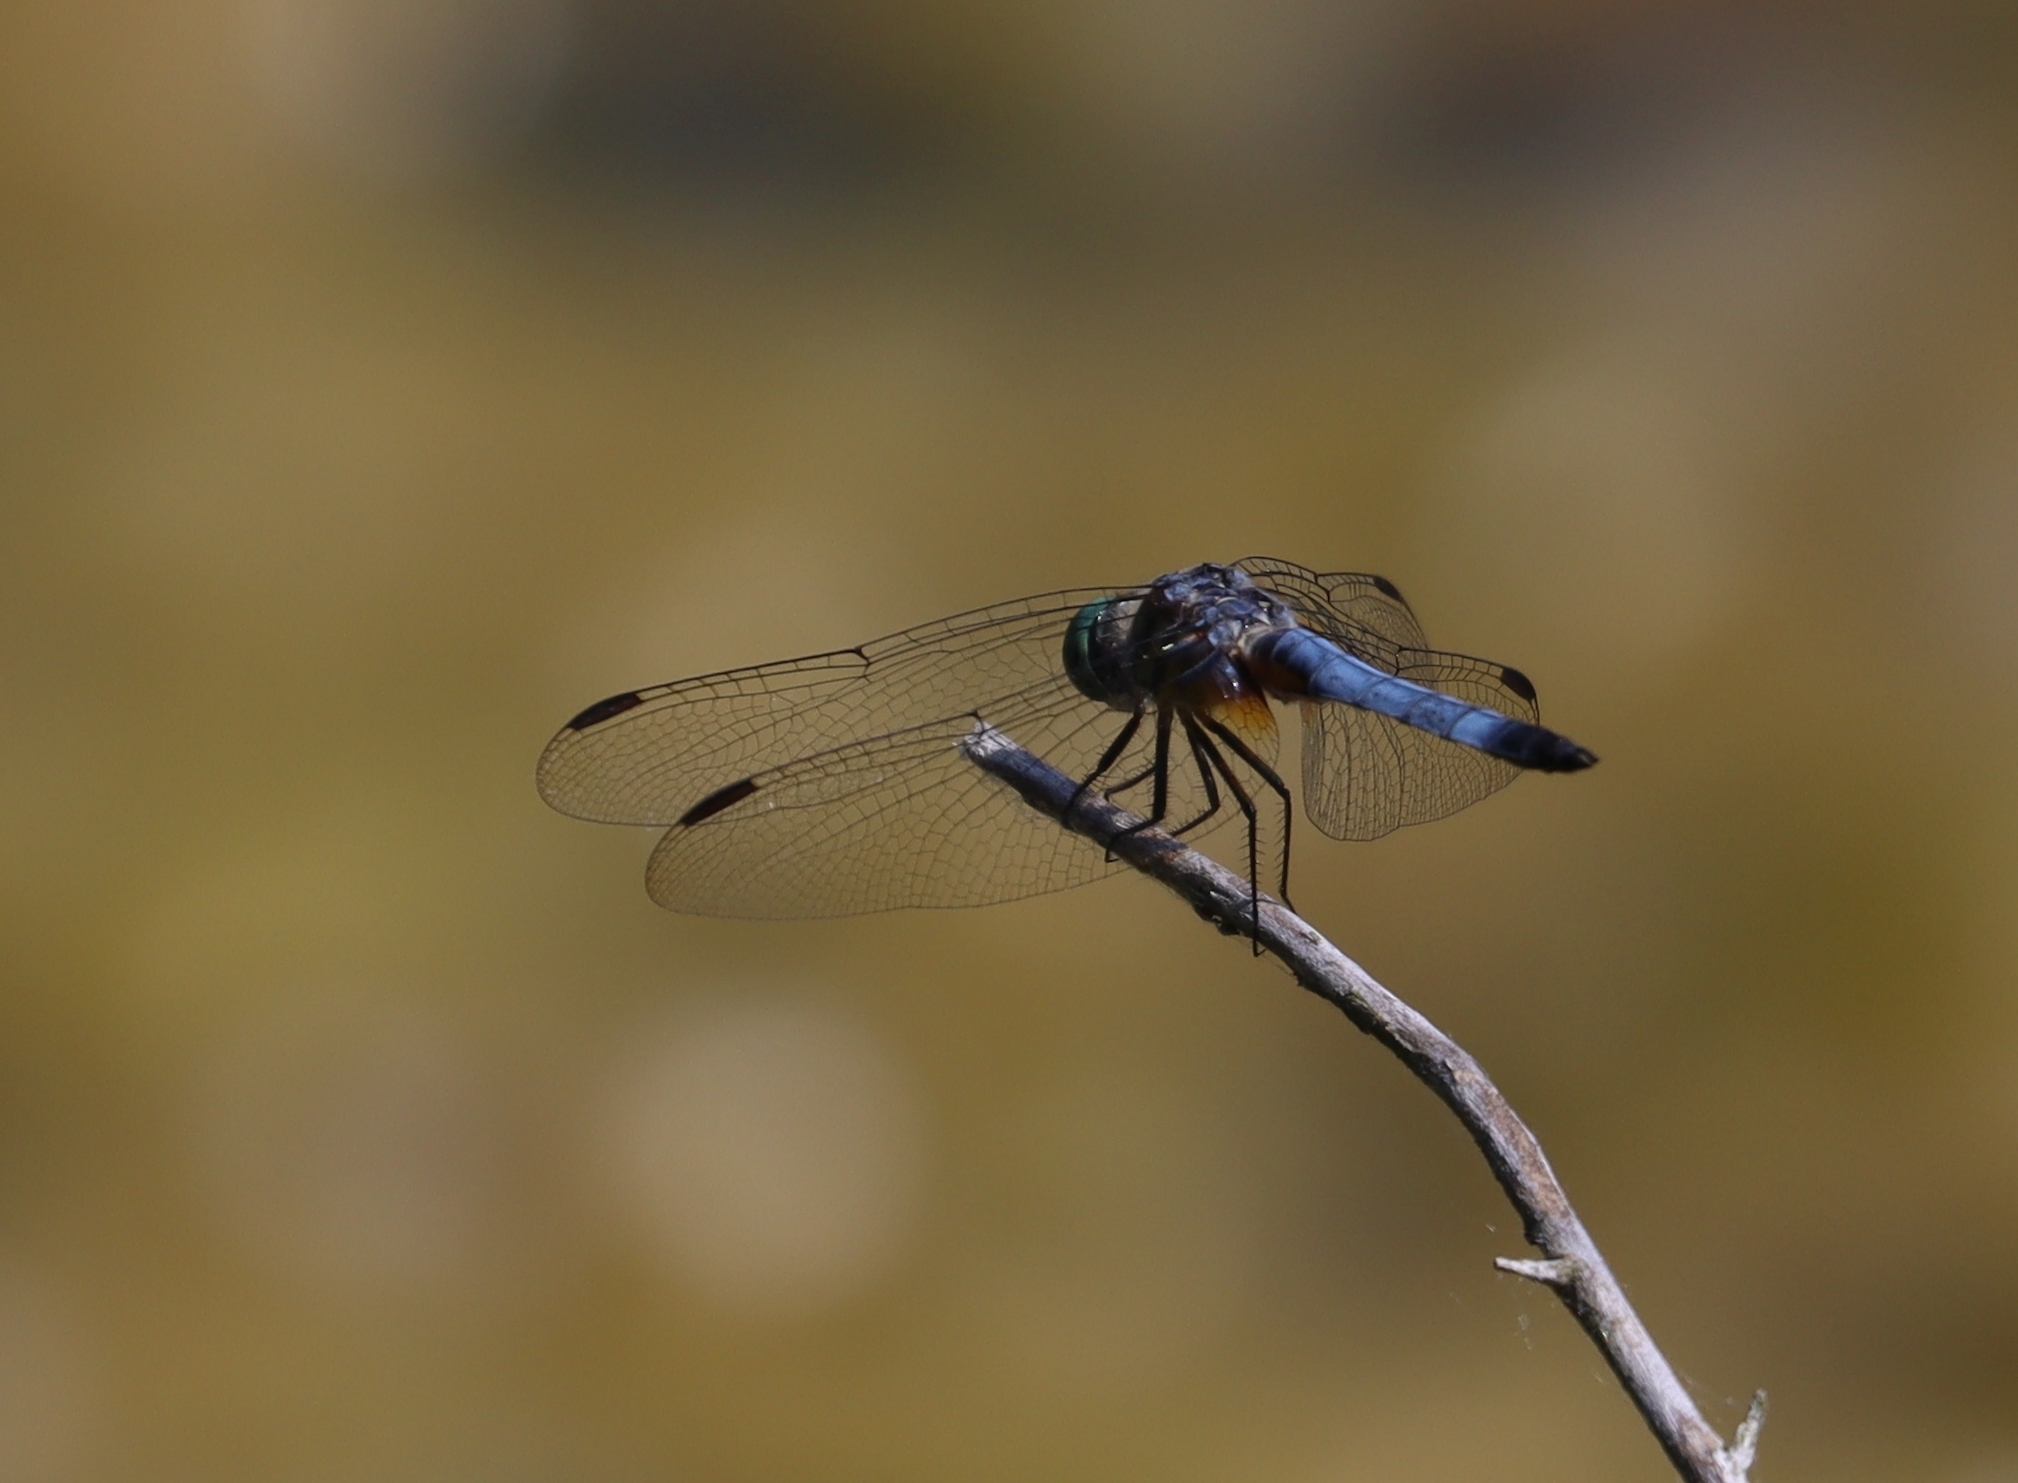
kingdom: Animalia
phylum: Arthropoda
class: Insecta
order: Odonata
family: Libellulidae
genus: Pachydiplax
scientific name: Pachydiplax longipennis
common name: Blue dasher
